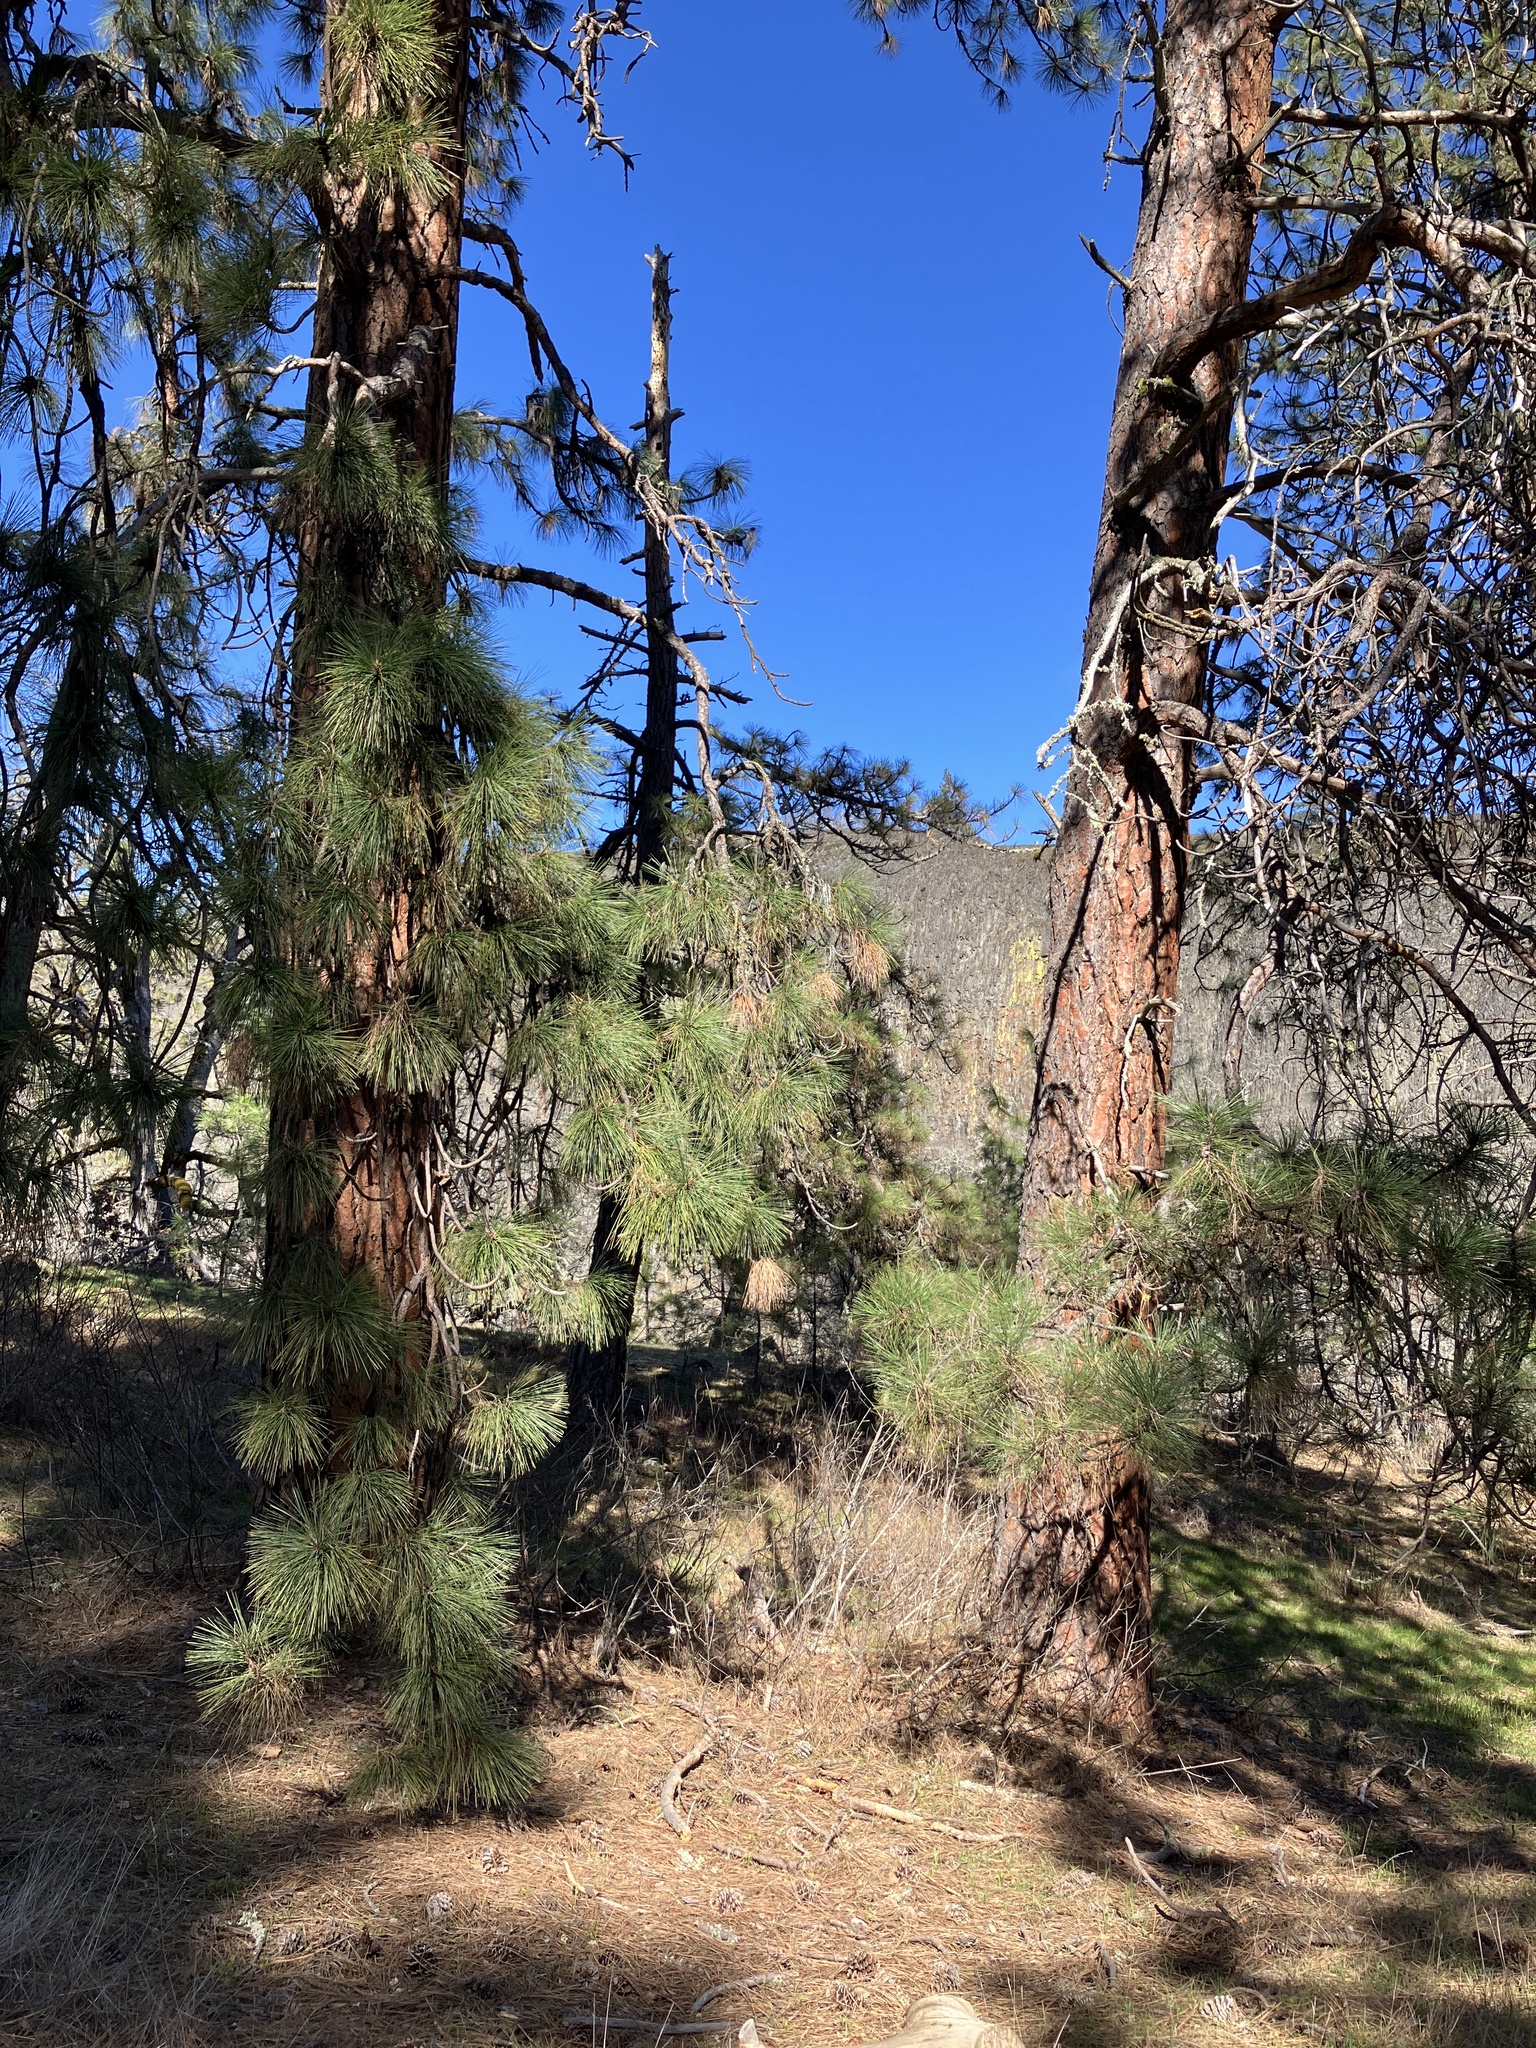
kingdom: Plantae
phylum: Tracheophyta
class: Pinopsida
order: Pinales
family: Pinaceae
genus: Pinus
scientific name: Pinus ponderosa
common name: Western yellow-pine
